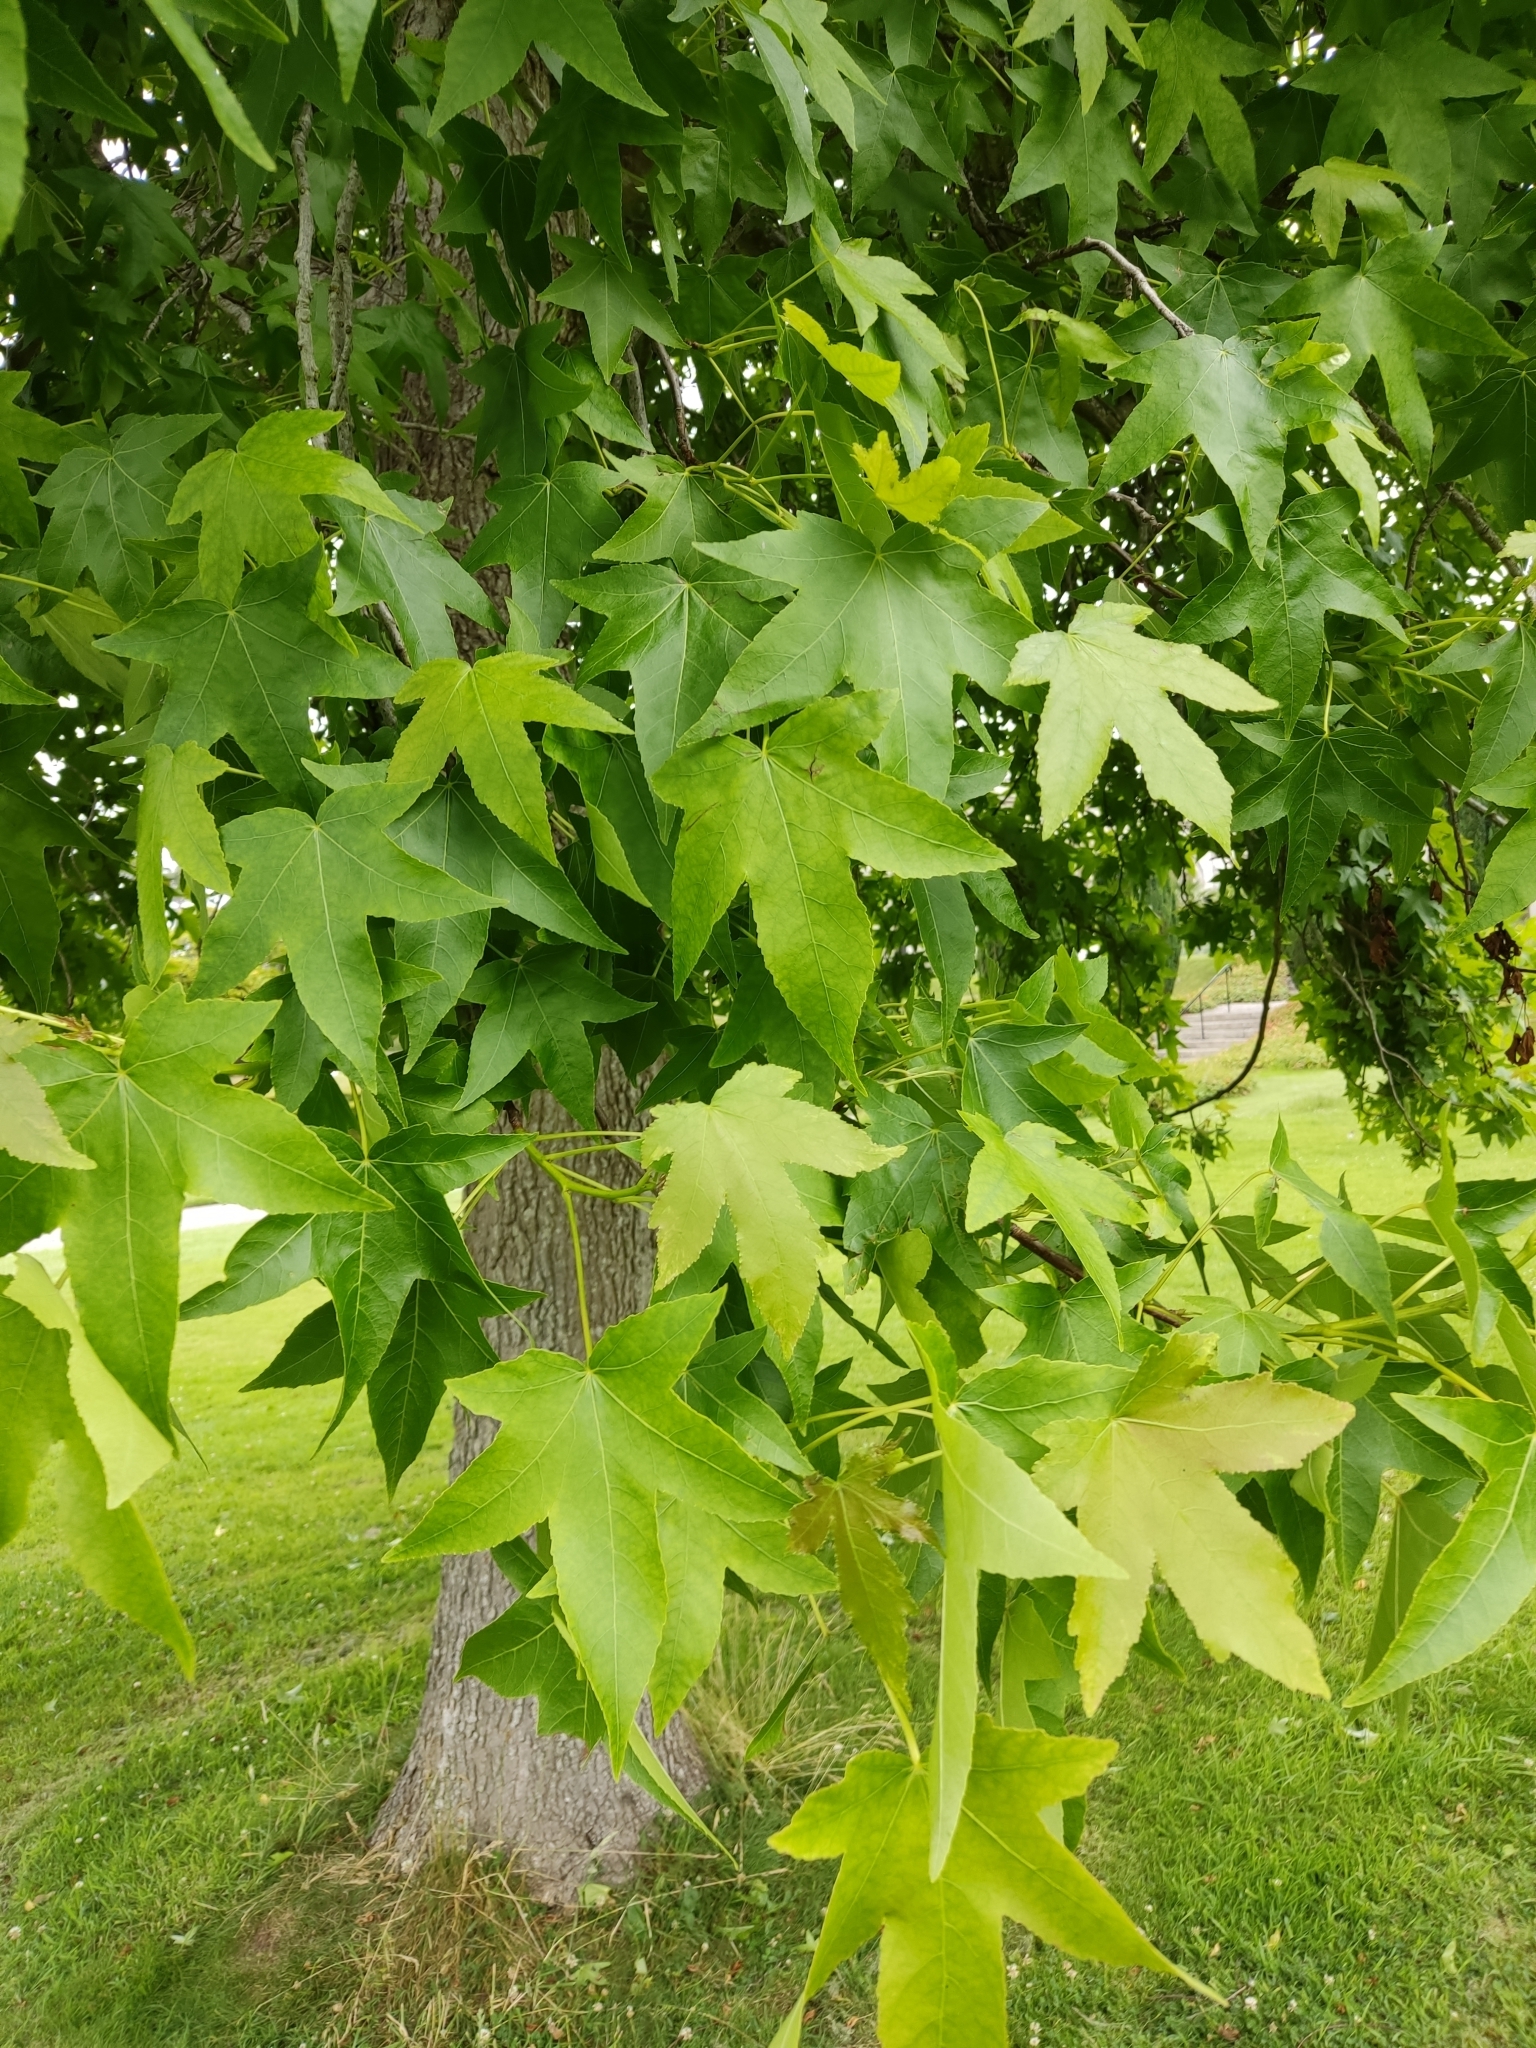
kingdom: Plantae
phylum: Tracheophyta
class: Magnoliopsida
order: Saxifragales
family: Altingiaceae
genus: Liquidambar
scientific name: Liquidambar styraciflua
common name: Sweet gum
